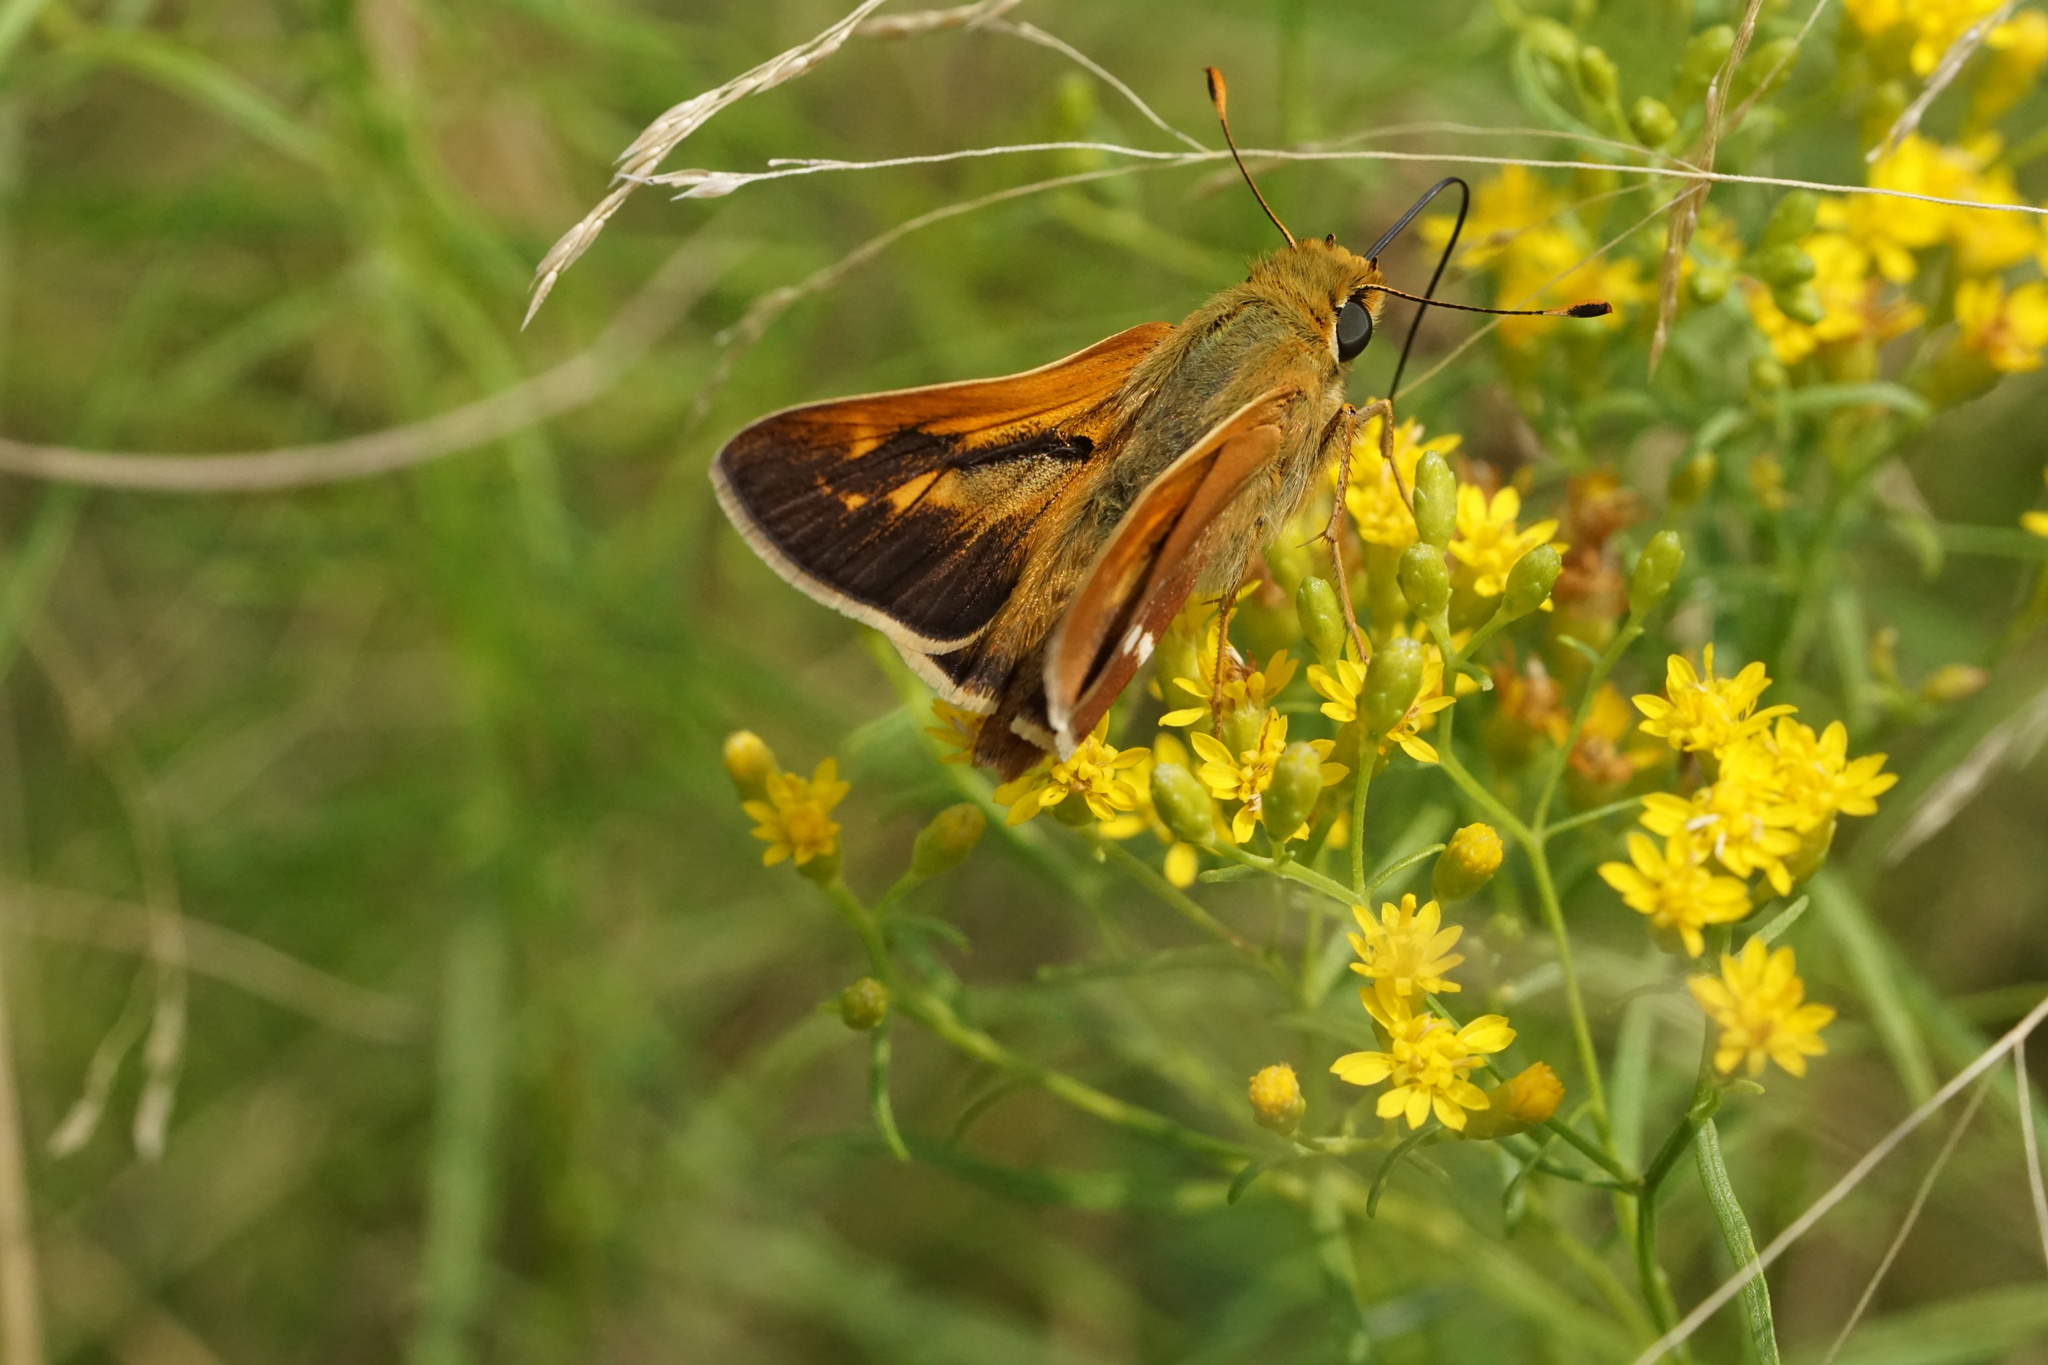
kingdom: Animalia
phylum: Arthropoda
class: Insecta
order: Lepidoptera
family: Hesperiidae
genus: Hesperia
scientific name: Hesperia leonardus
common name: Leonard's skipper
